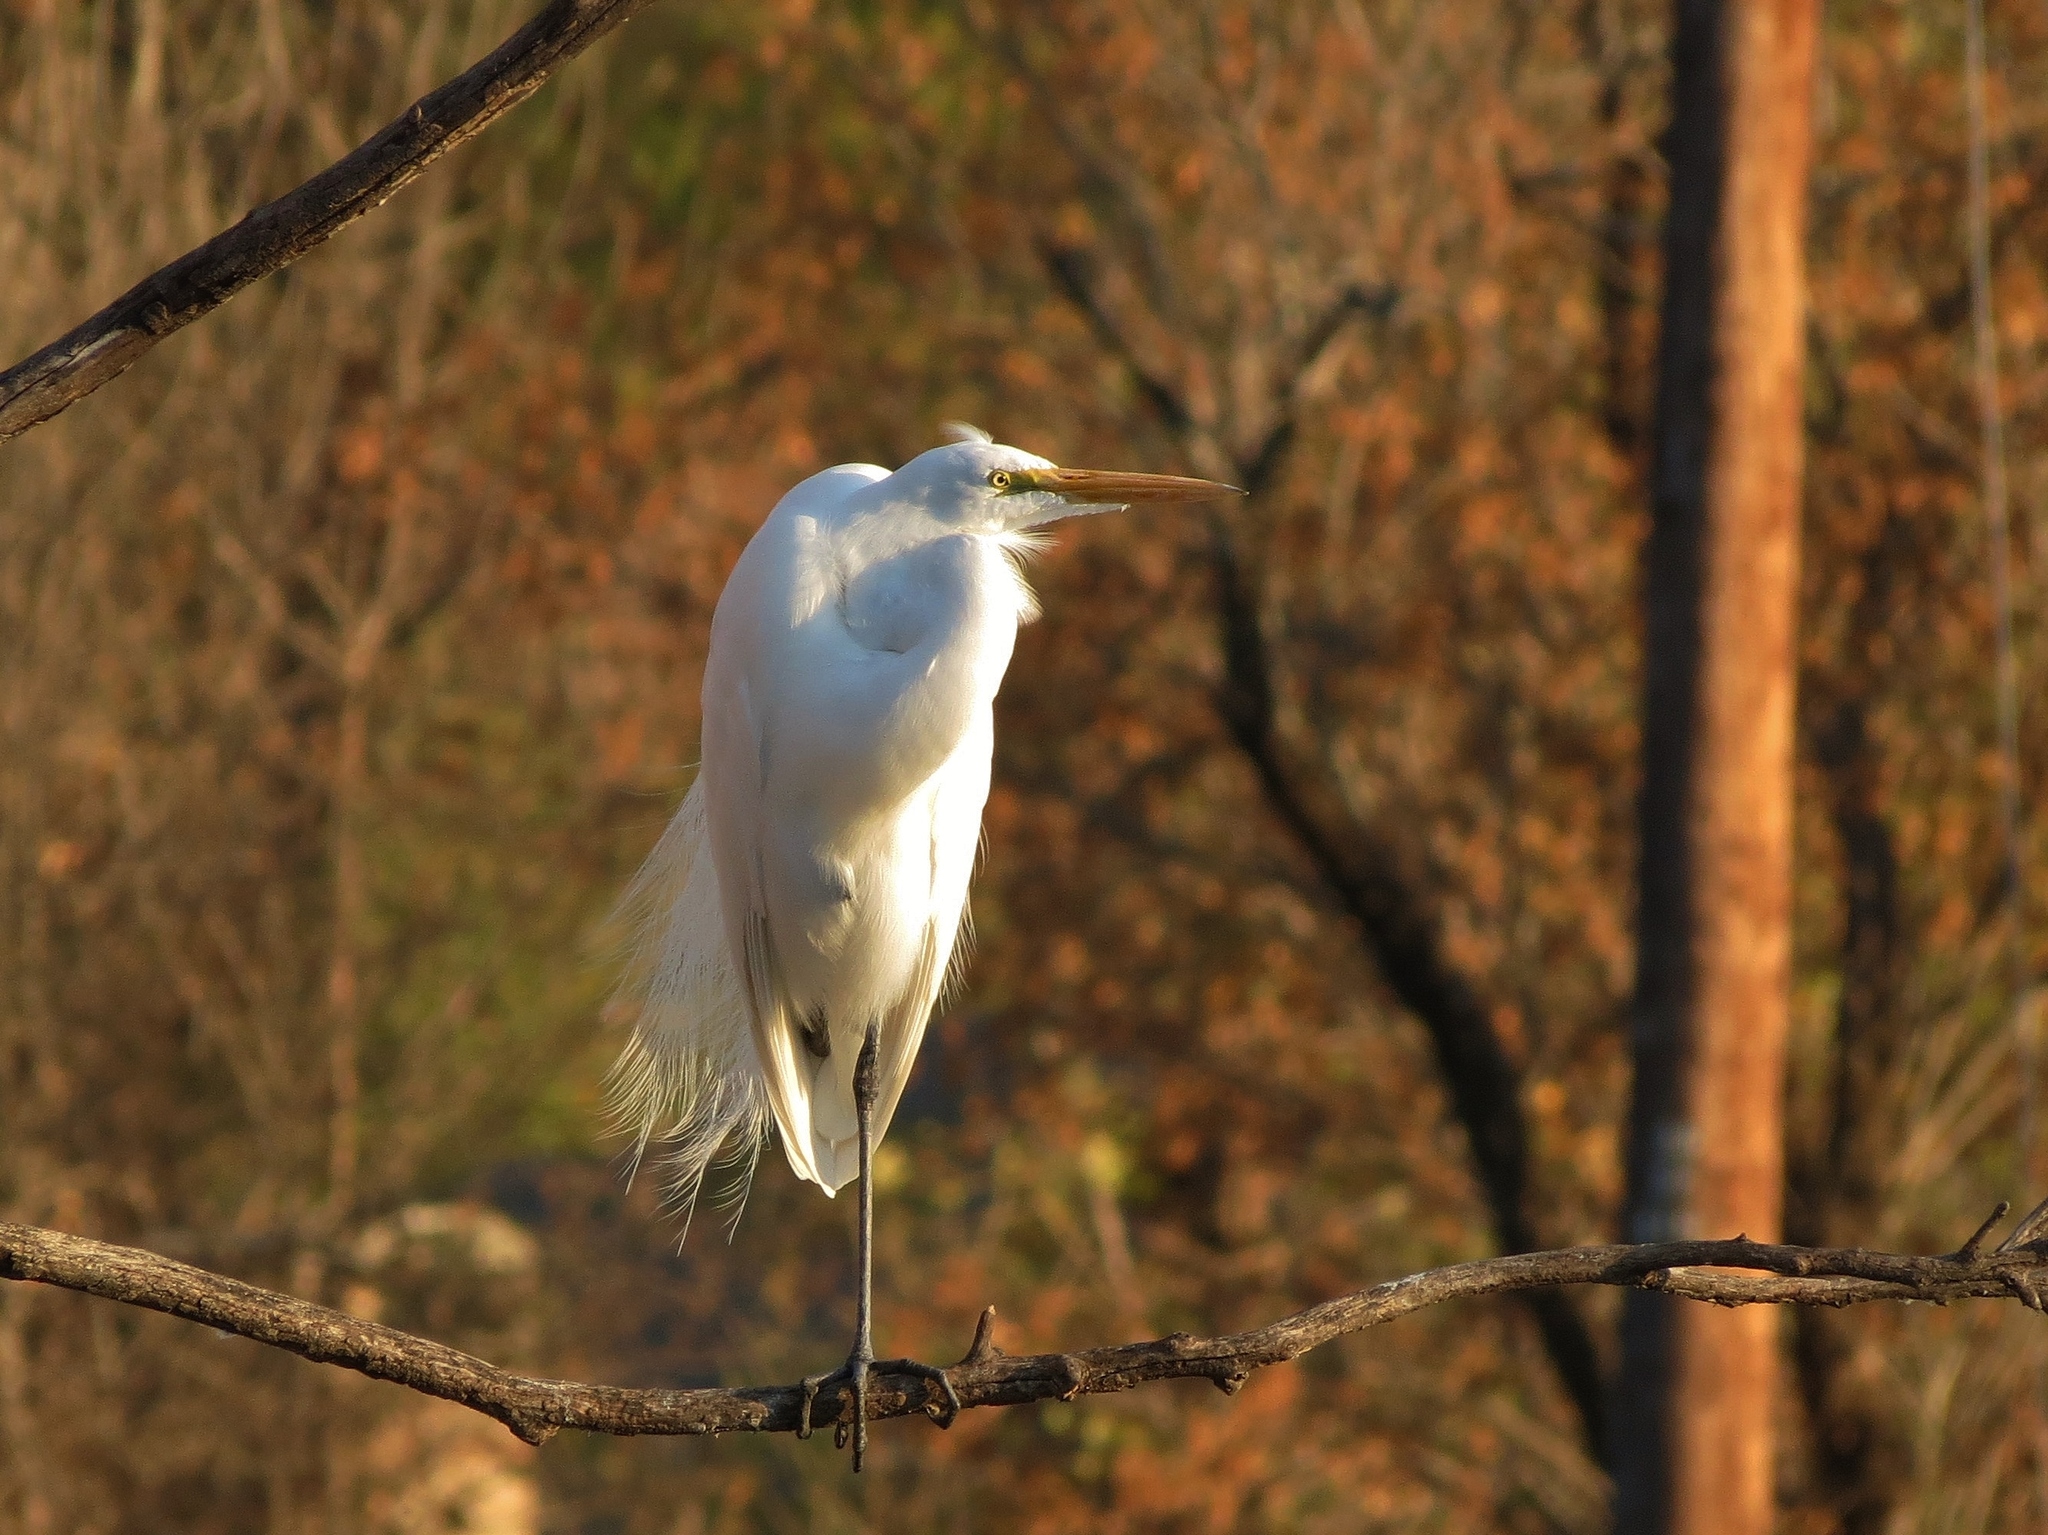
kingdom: Animalia
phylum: Chordata
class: Aves
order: Pelecaniformes
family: Ardeidae
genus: Ardea
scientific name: Ardea alba
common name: Great egret
